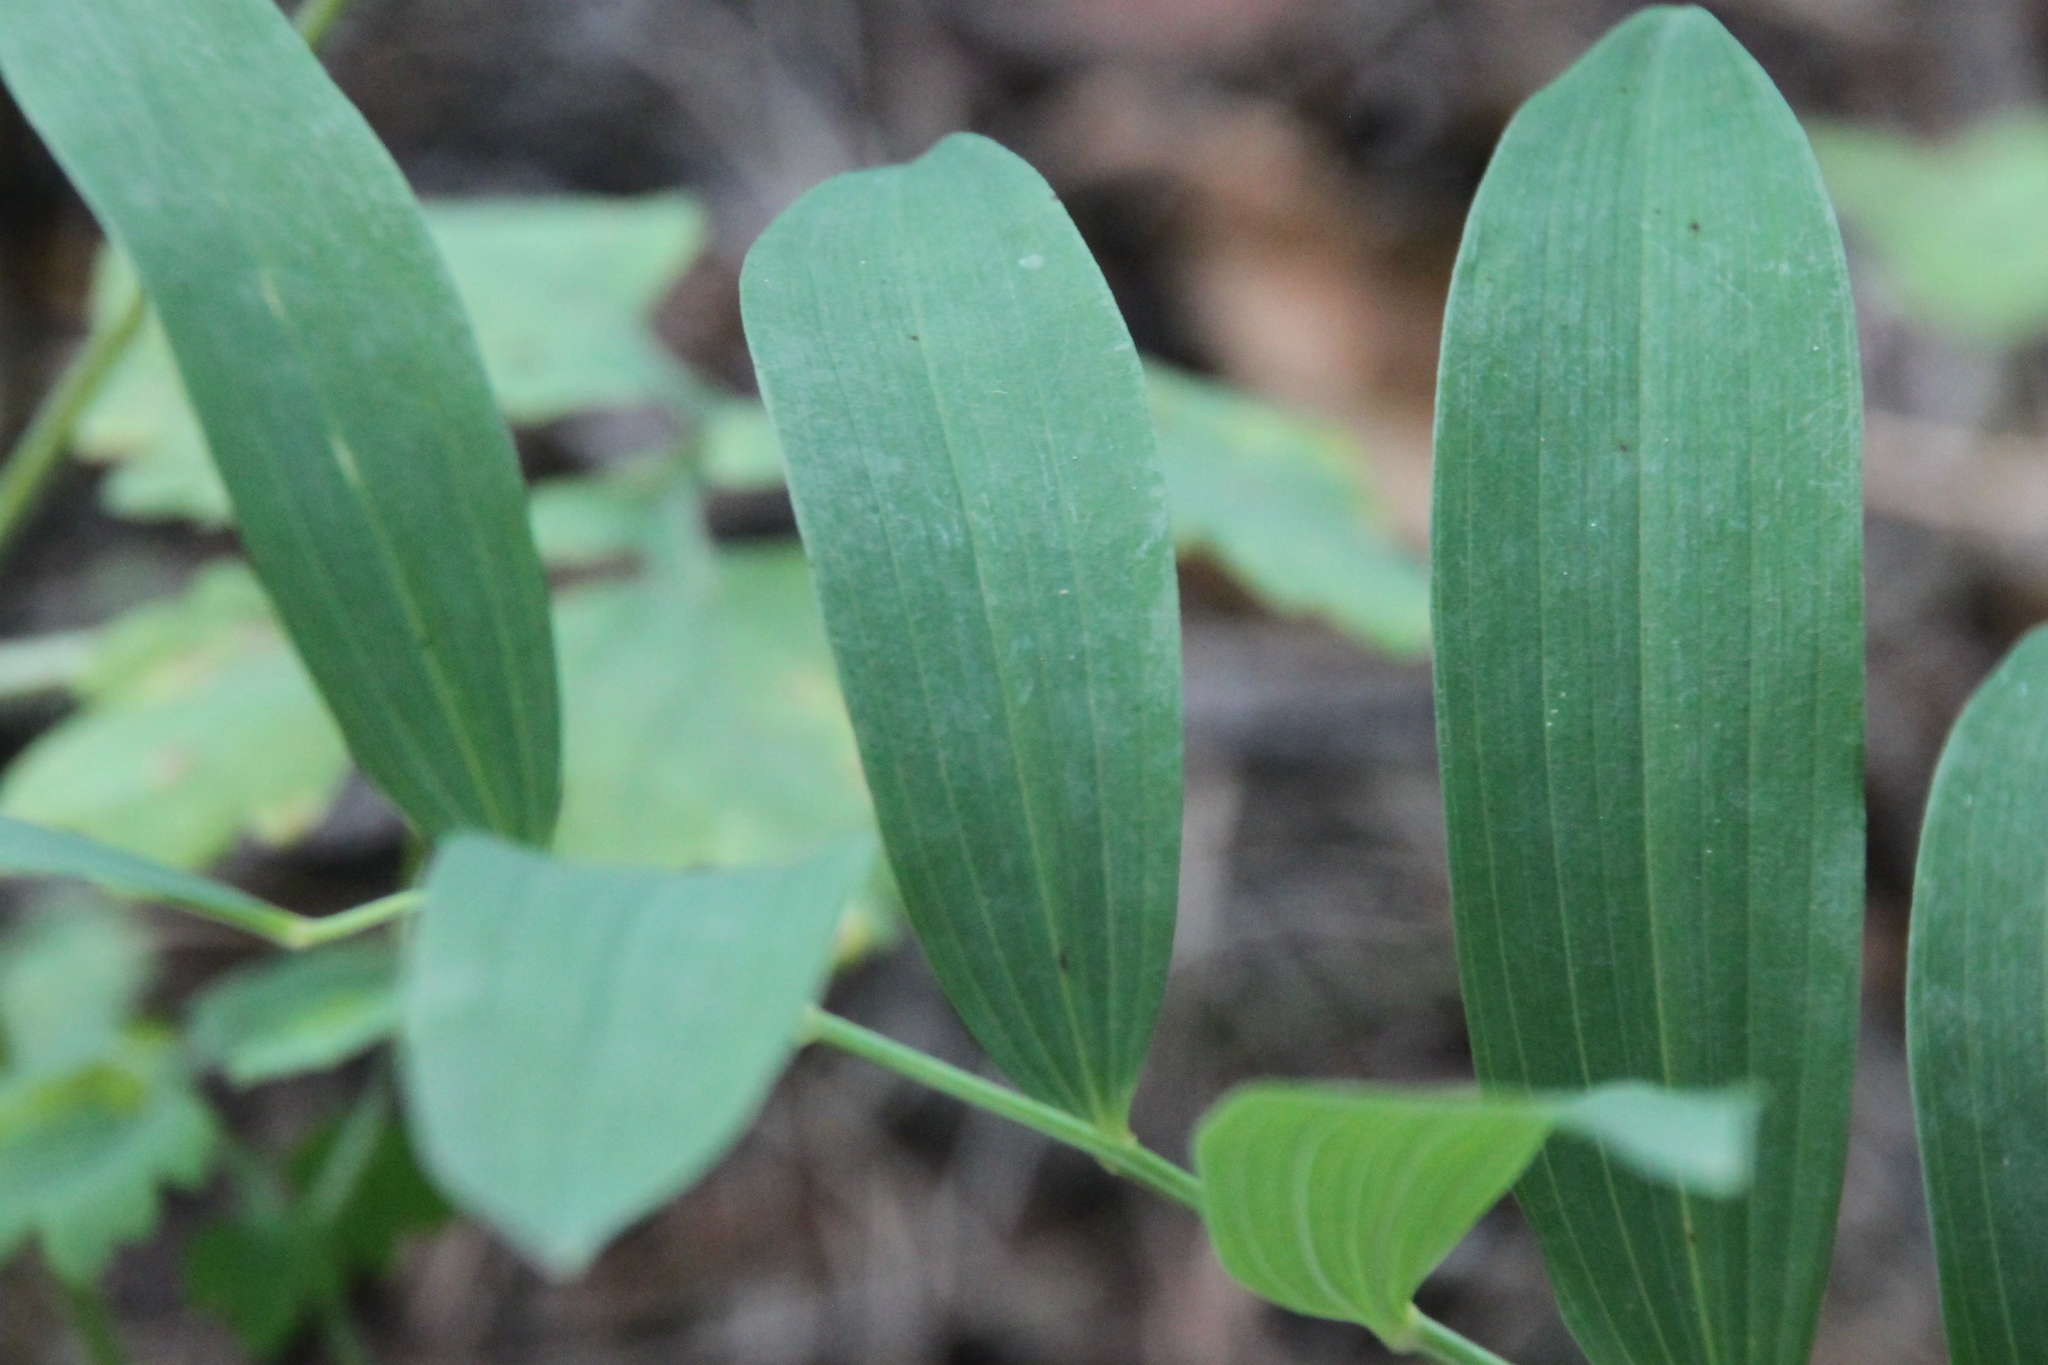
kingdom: Plantae
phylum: Tracheophyta
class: Liliopsida
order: Asparagales
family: Asparagaceae
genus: Polygonatum
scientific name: Polygonatum odoratum
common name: Angular solomon's-seal
